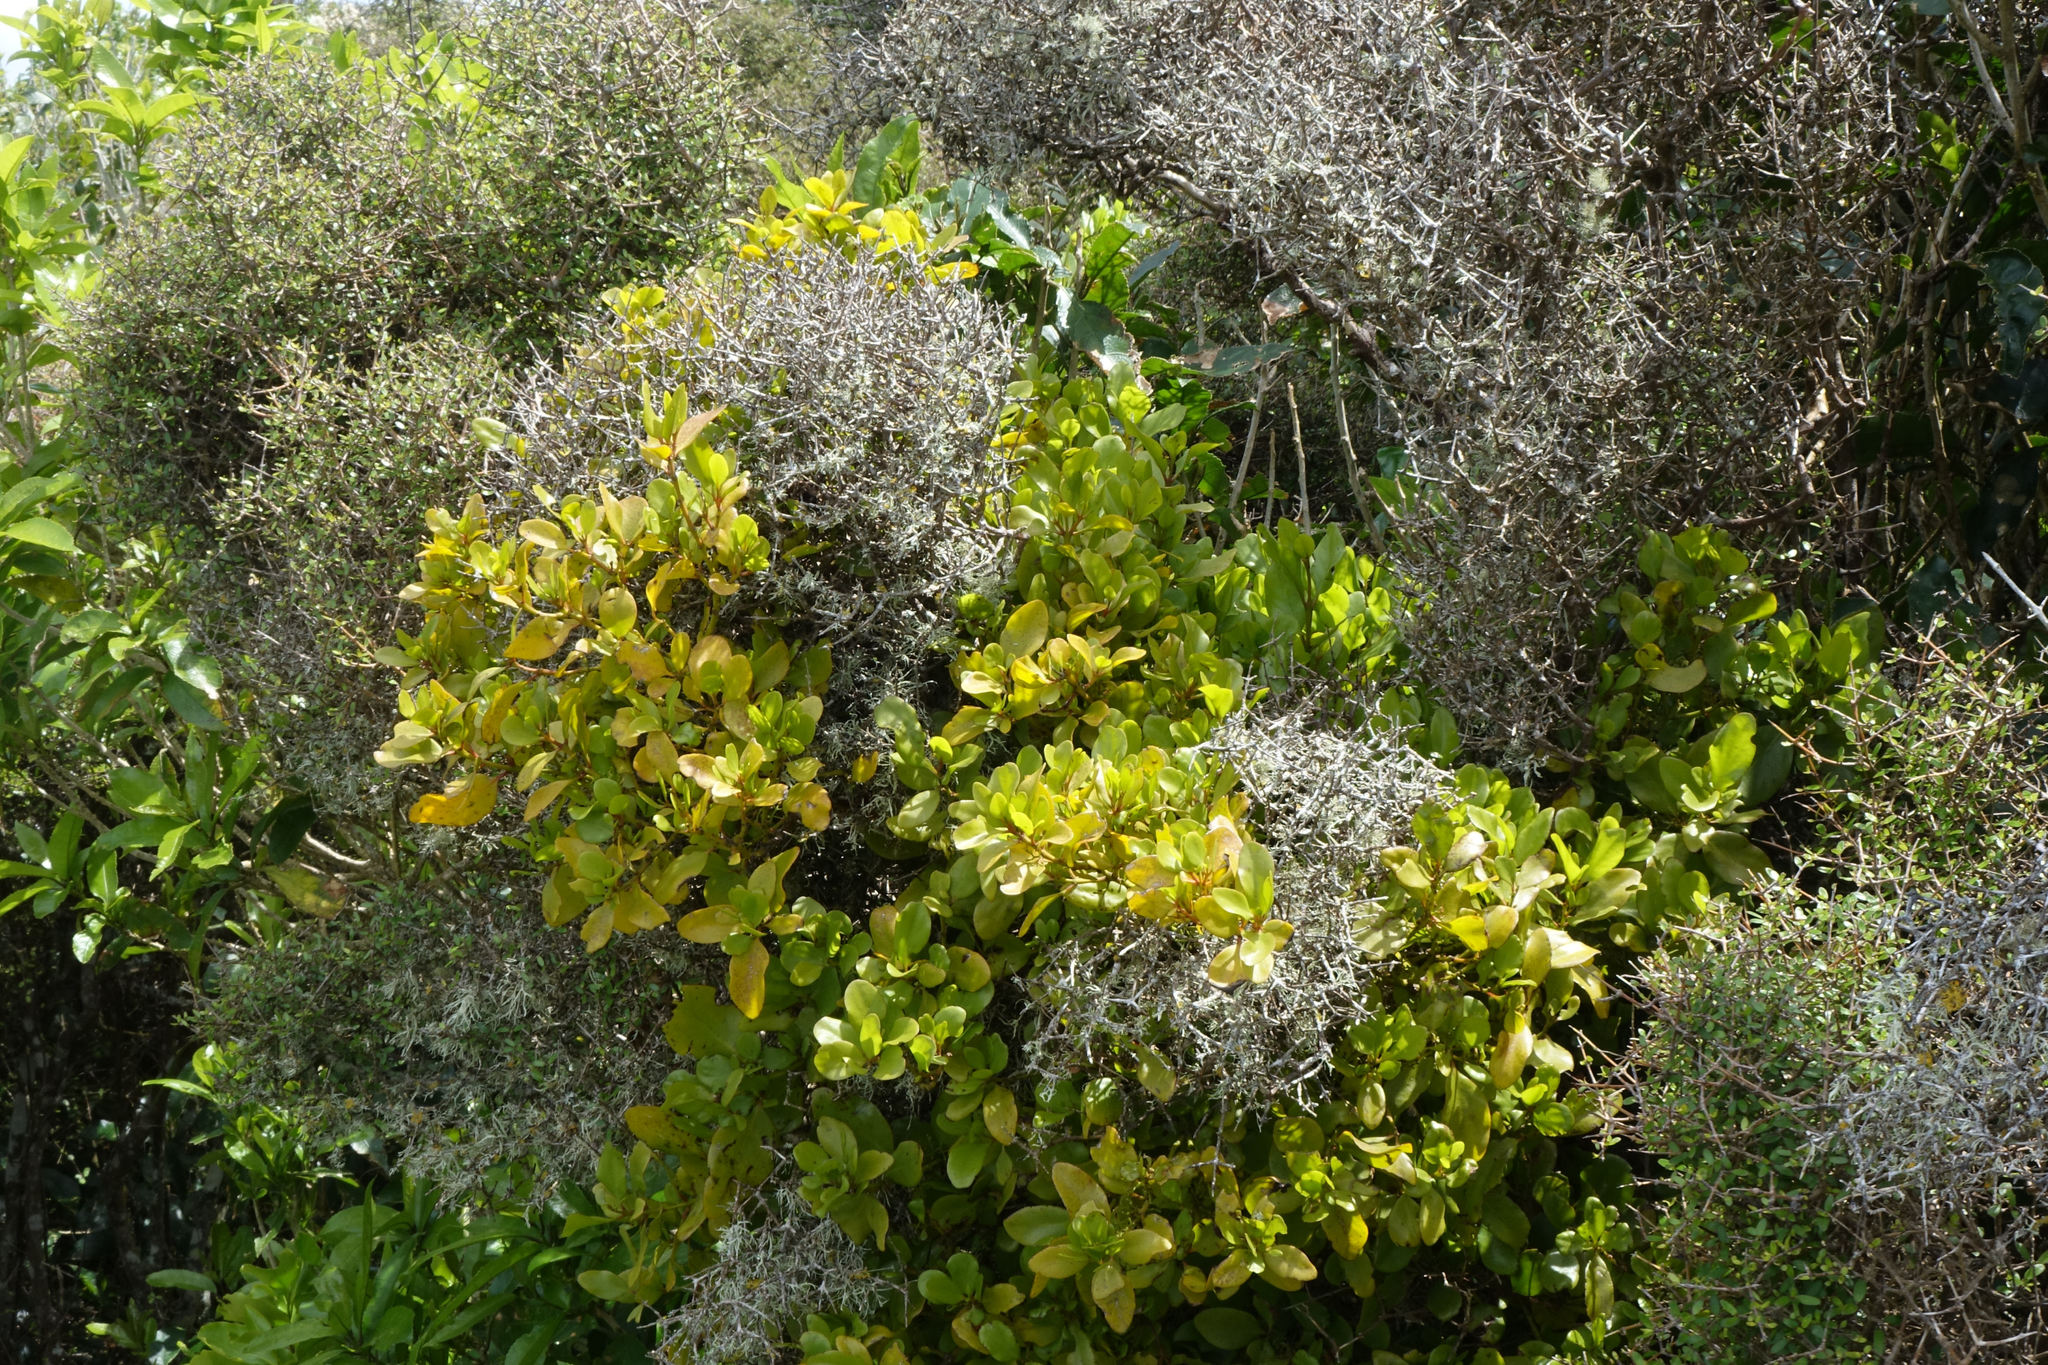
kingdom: Plantae
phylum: Tracheophyta
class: Magnoliopsida
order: Santalales
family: Loranthaceae
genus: Ileostylus
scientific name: Ileostylus micranthus
